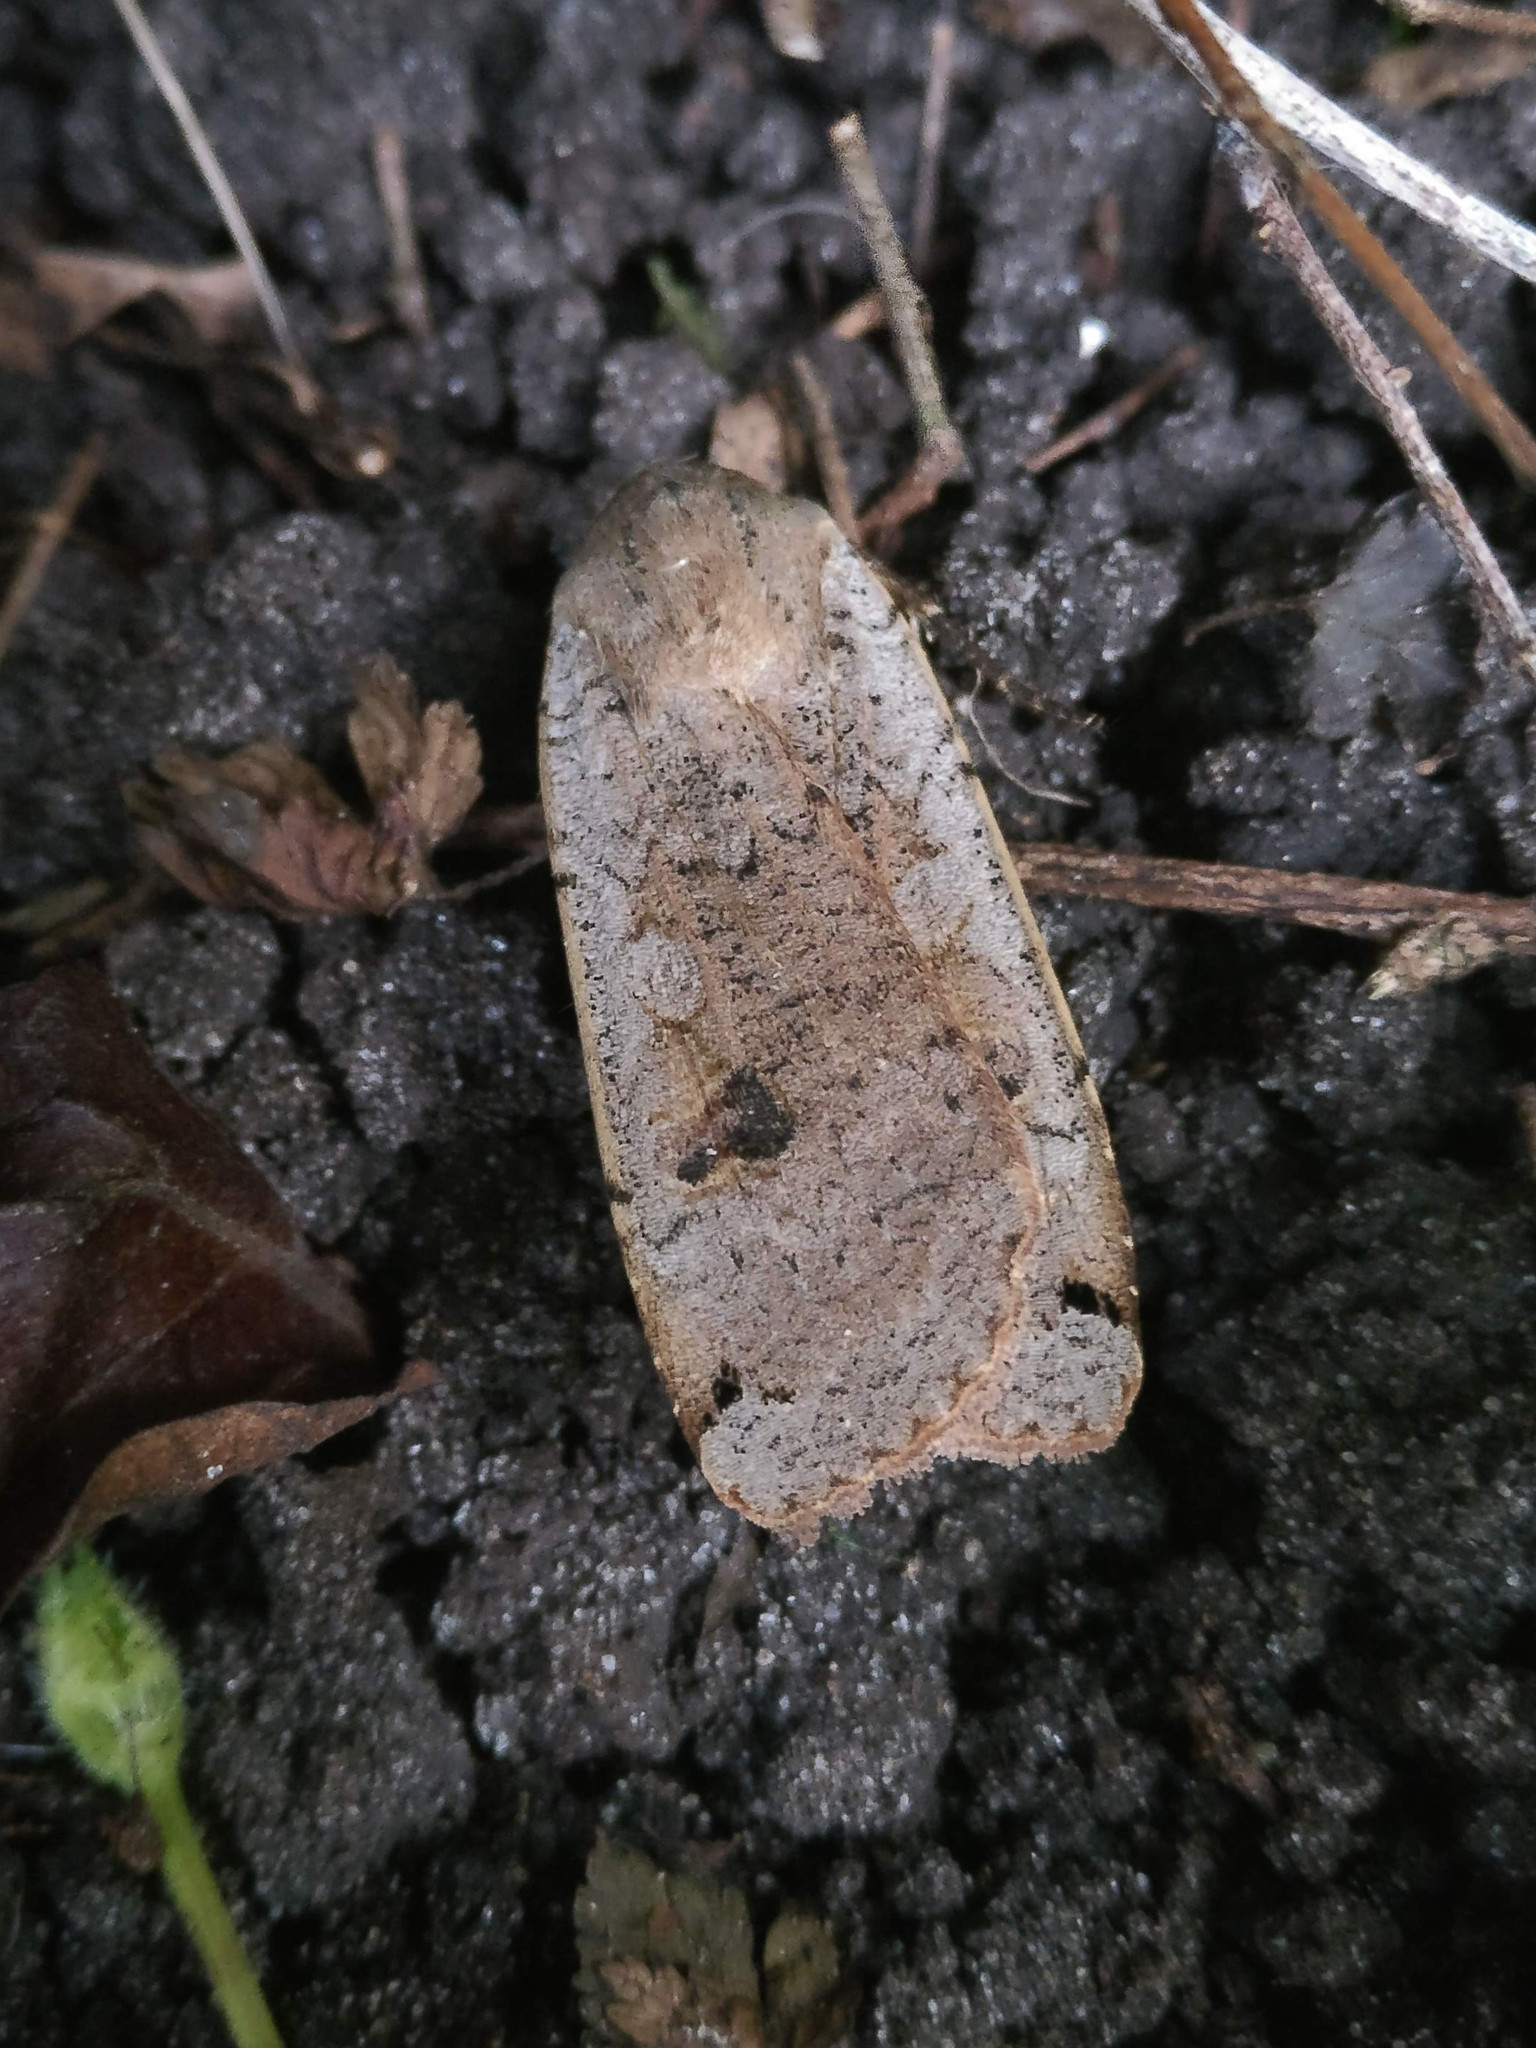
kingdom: Animalia
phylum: Arthropoda
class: Insecta
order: Lepidoptera
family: Noctuidae
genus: Noctua
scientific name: Noctua pronuba
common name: Large yellow underwing
